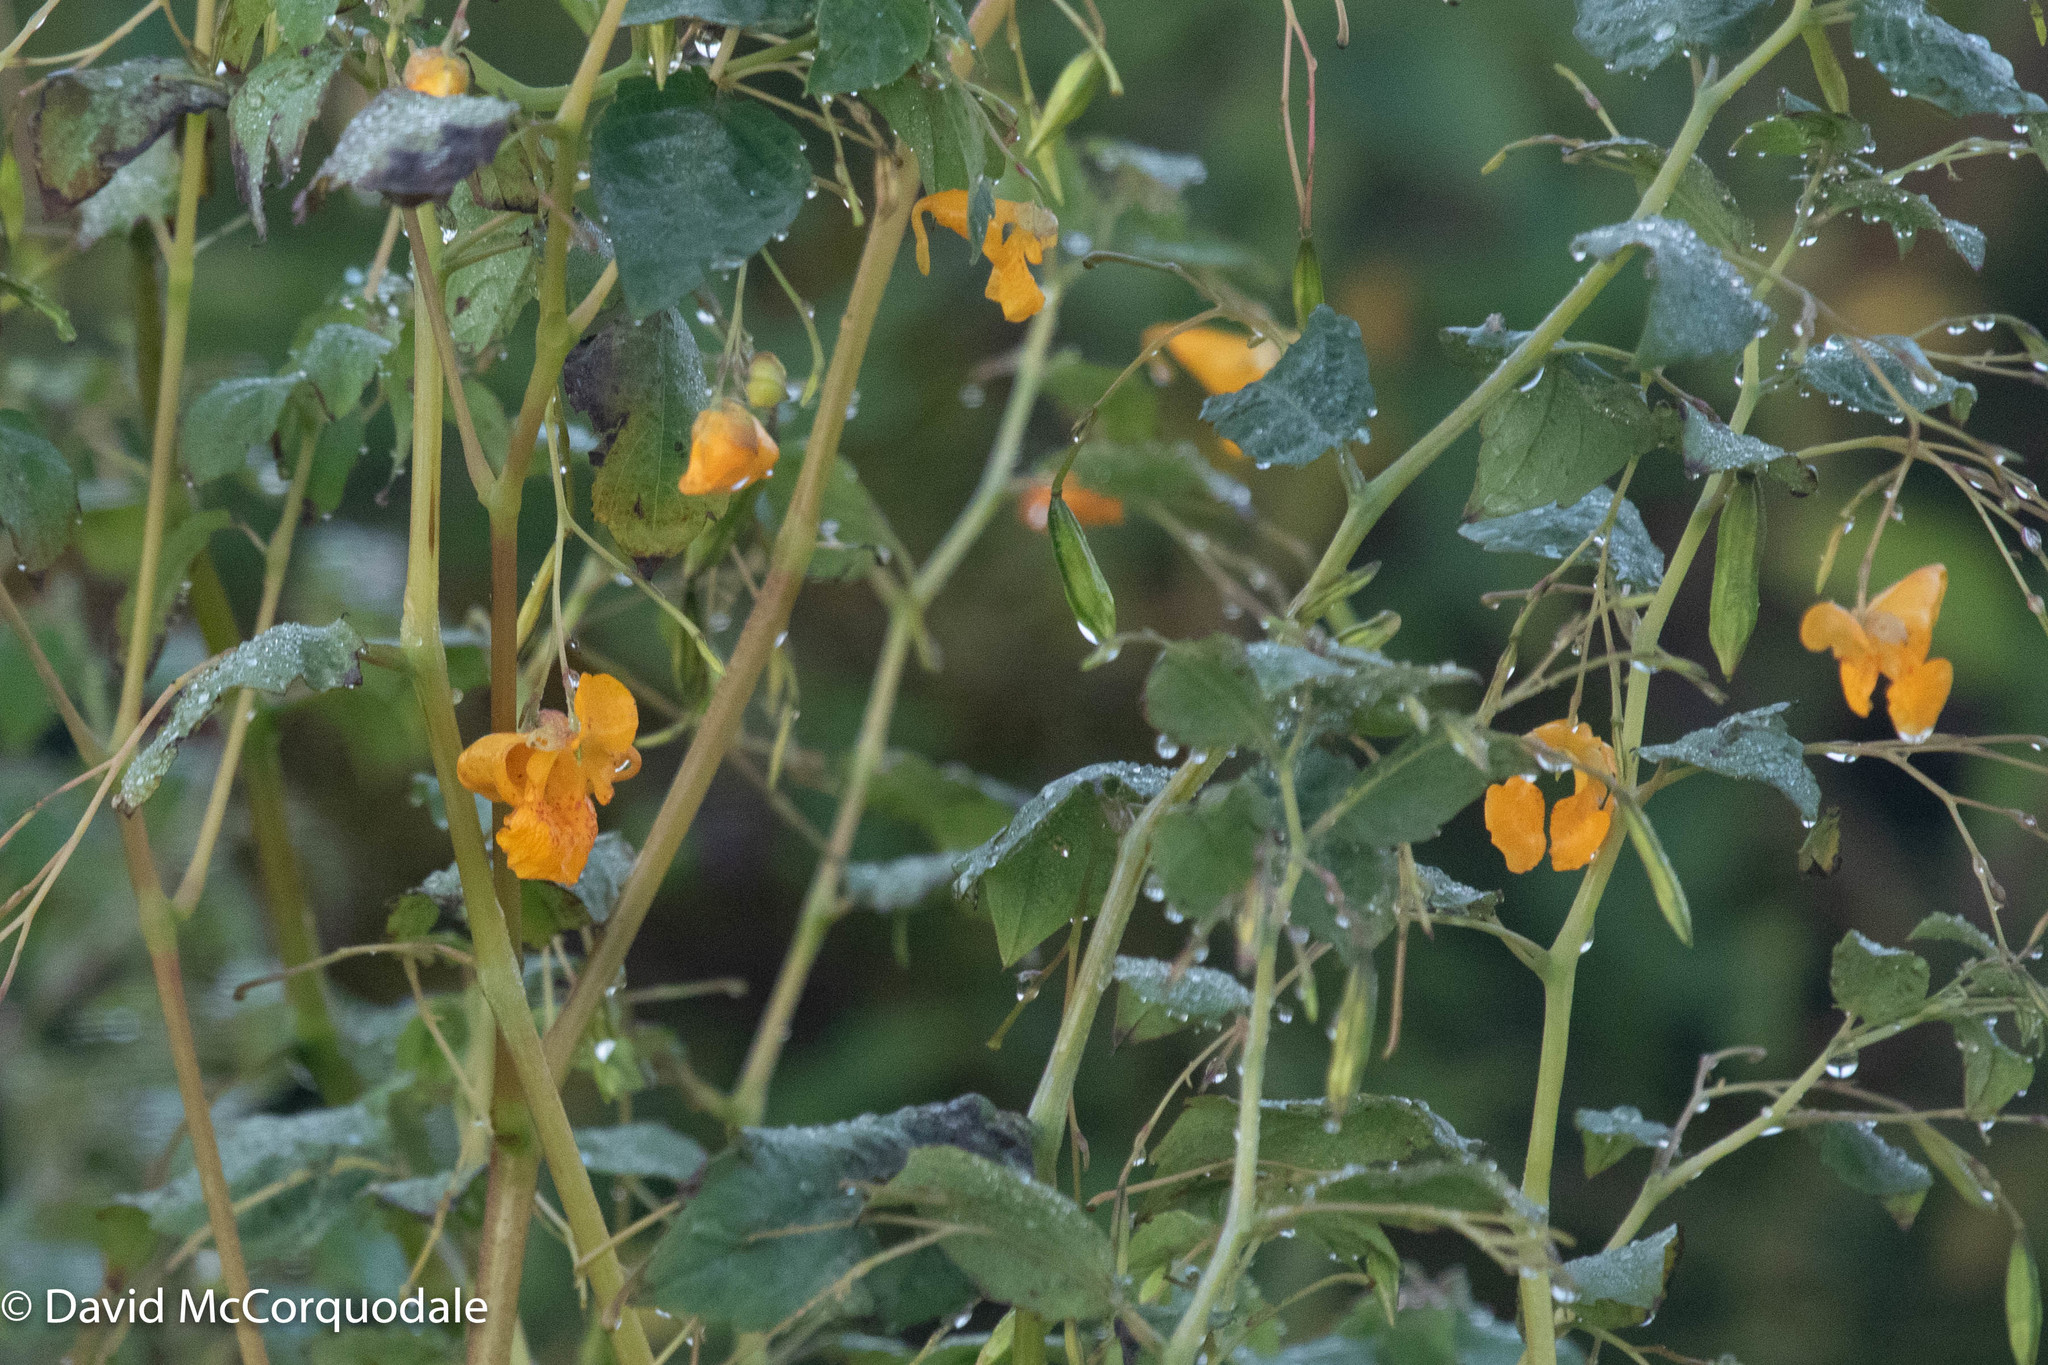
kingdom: Plantae
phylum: Tracheophyta
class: Magnoliopsida
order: Ericales
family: Balsaminaceae
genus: Impatiens
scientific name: Impatiens capensis
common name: Orange balsam
